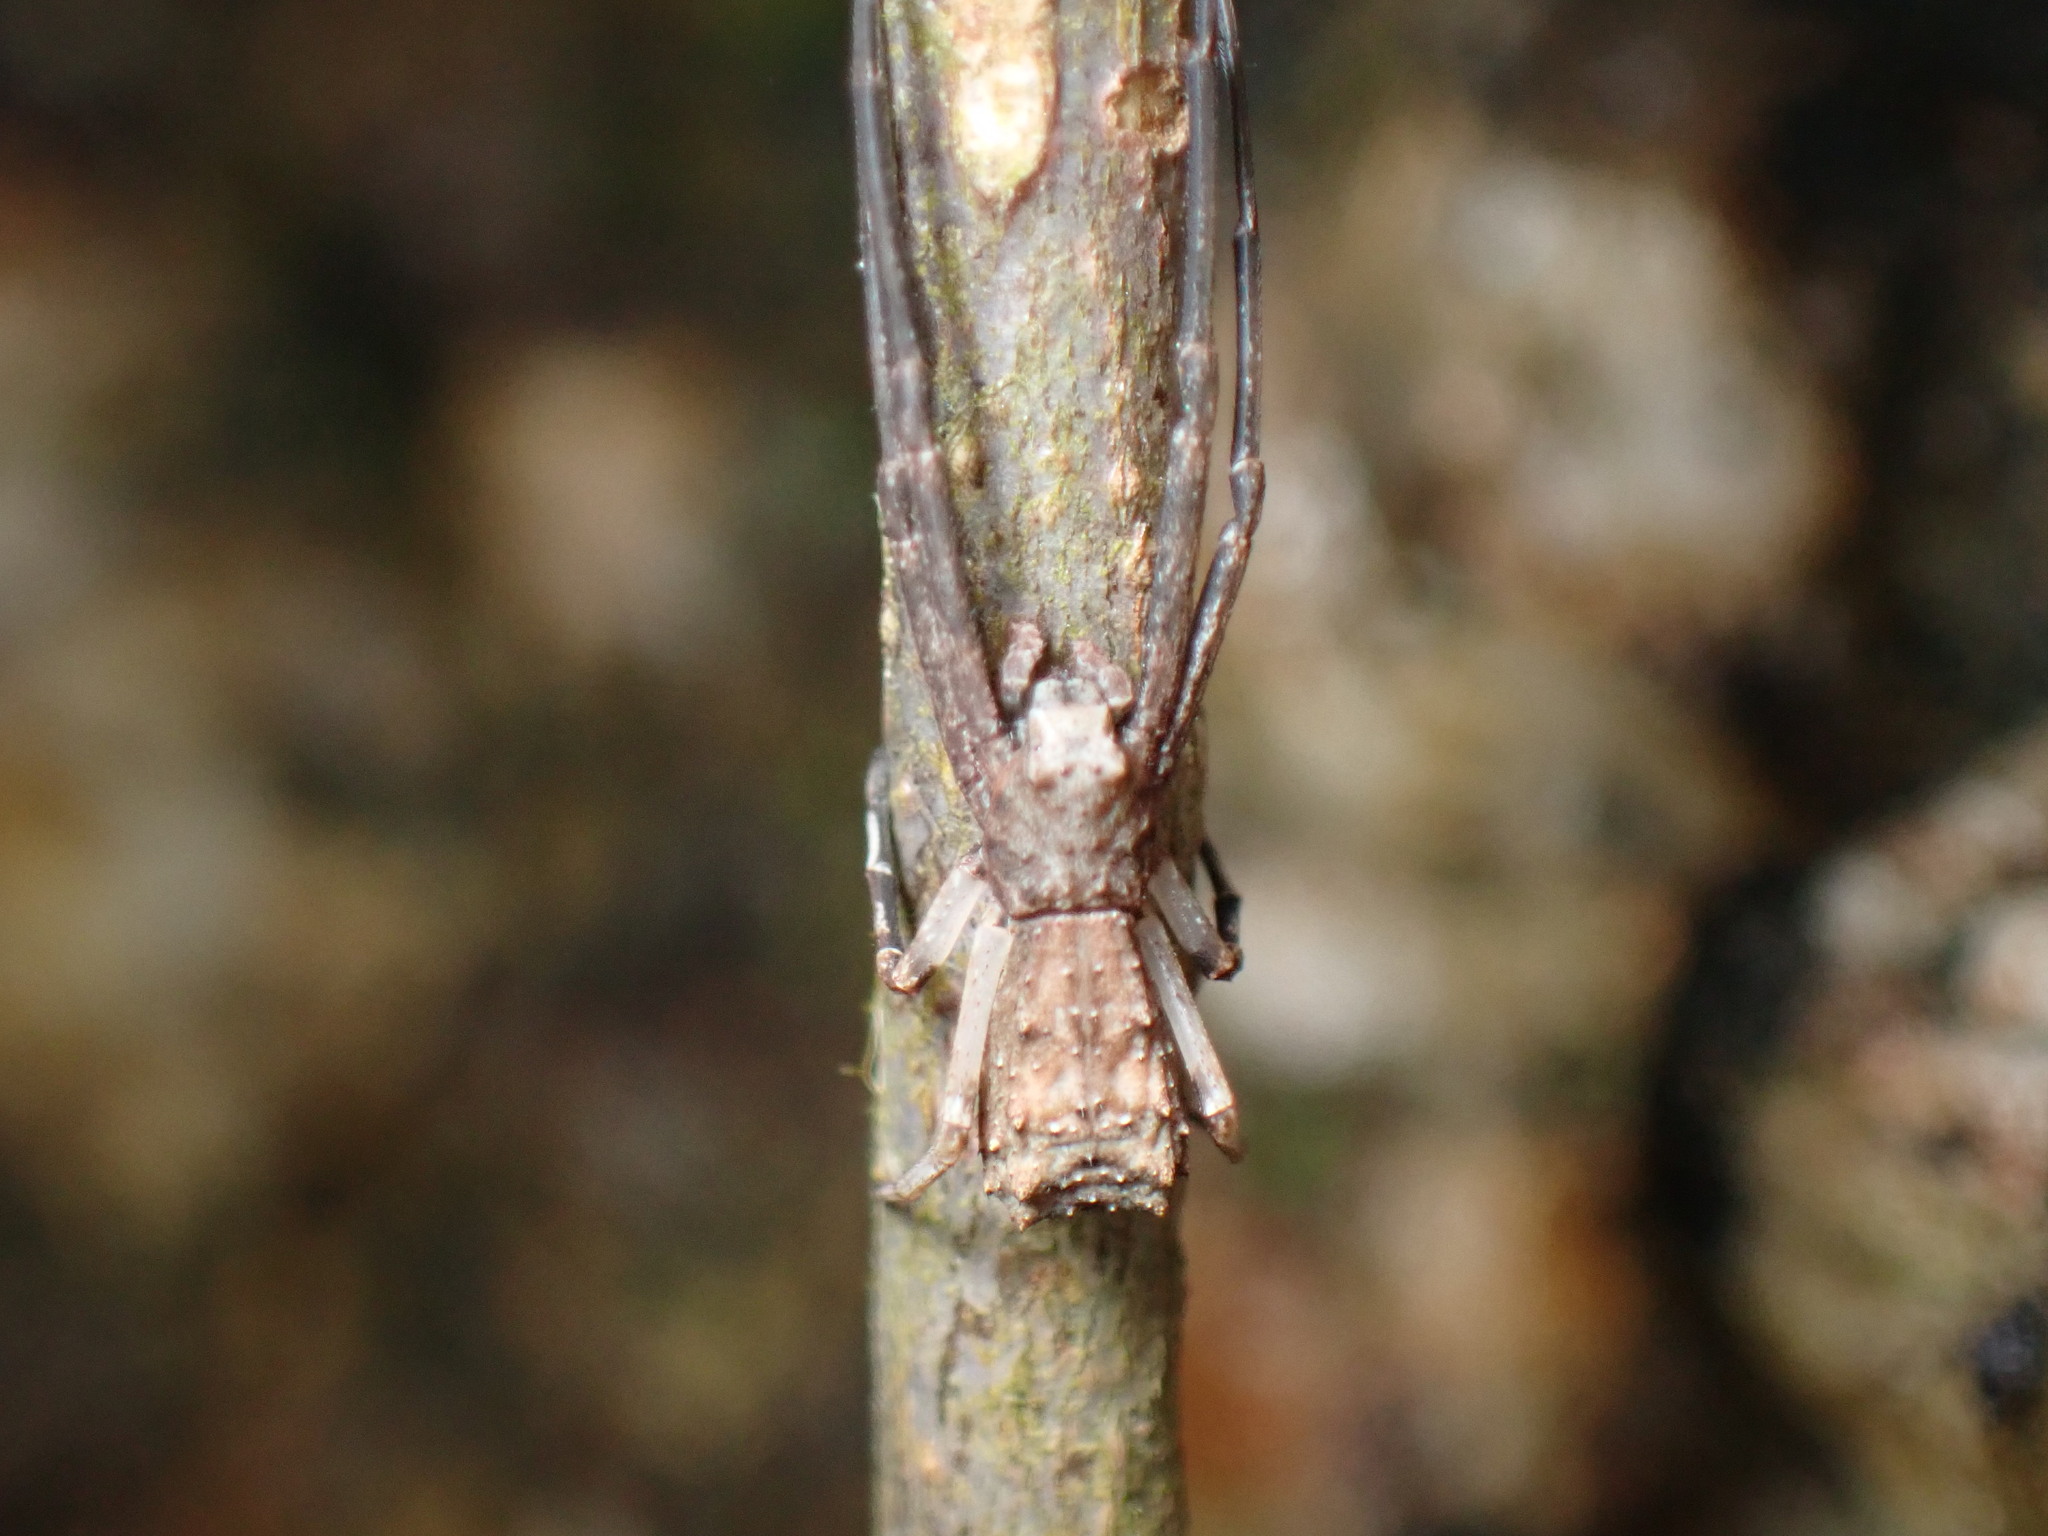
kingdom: Animalia
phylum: Arthropoda
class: Arachnida
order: Araneae
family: Thomisidae
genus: Simorcus
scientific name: Simorcus asiaticus
